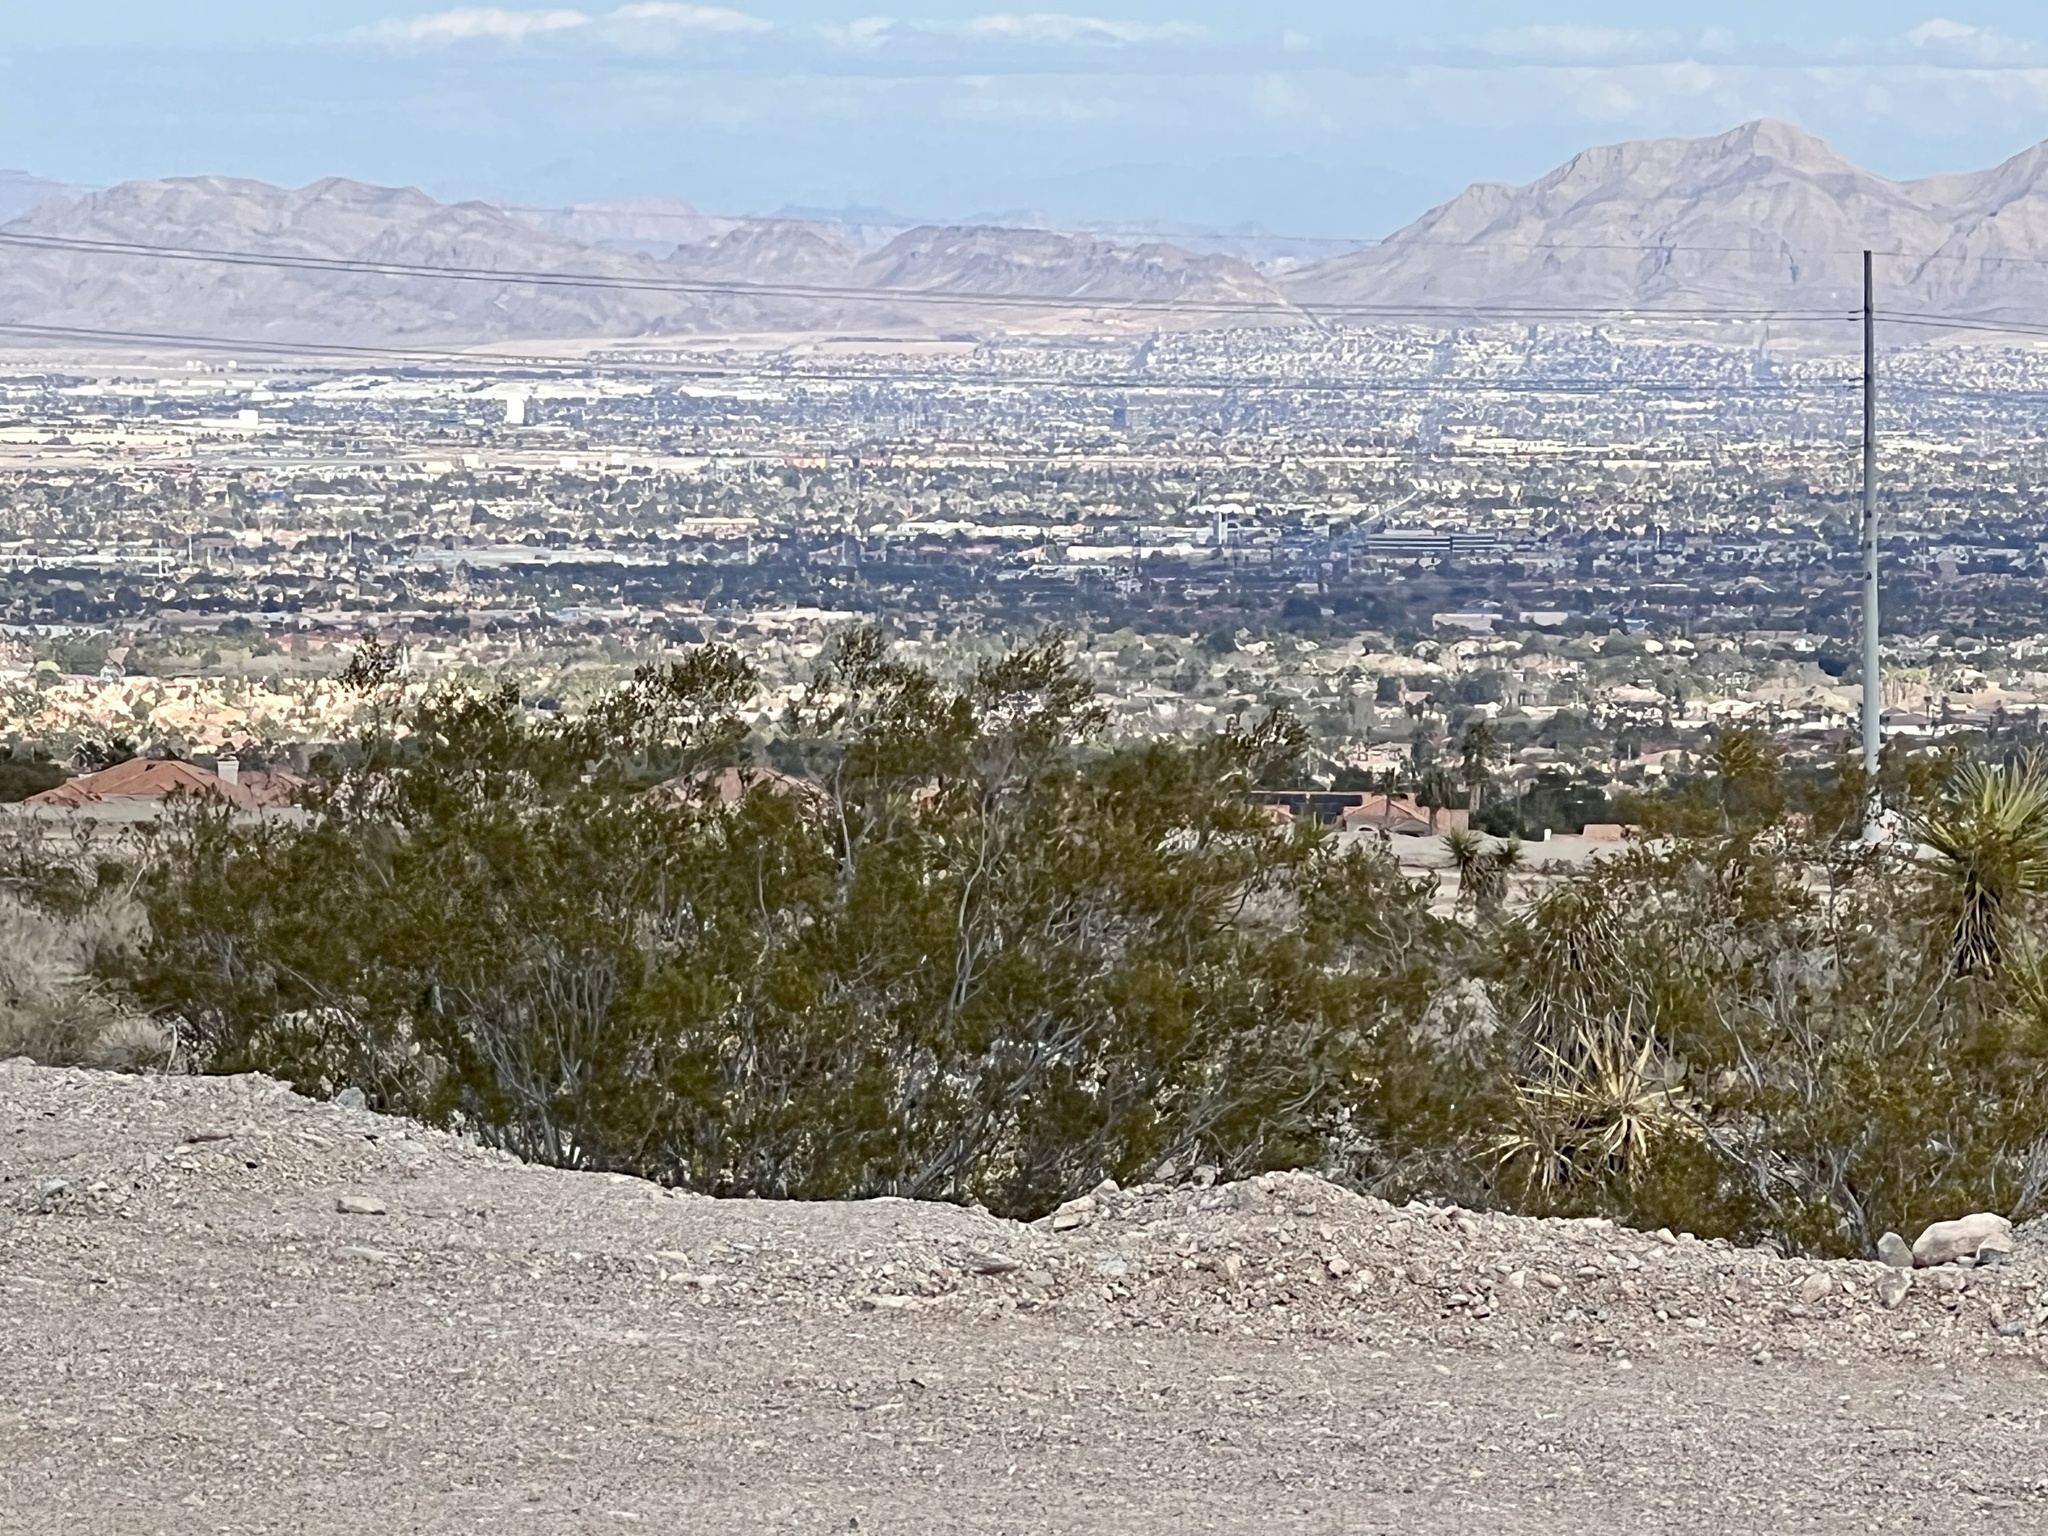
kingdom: Plantae
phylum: Tracheophyta
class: Magnoliopsida
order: Zygophyllales
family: Zygophyllaceae
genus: Larrea
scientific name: Larrea tridentata
